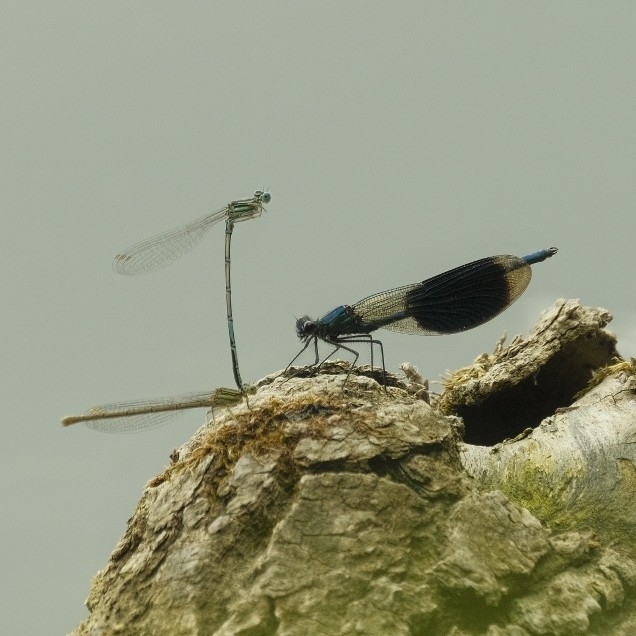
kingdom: Animalia
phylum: Arthropoda
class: Insecta
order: Odonata
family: Calopterygidae
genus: Calopteryx
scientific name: Calopteryx splendens
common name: Banded demoiselle
